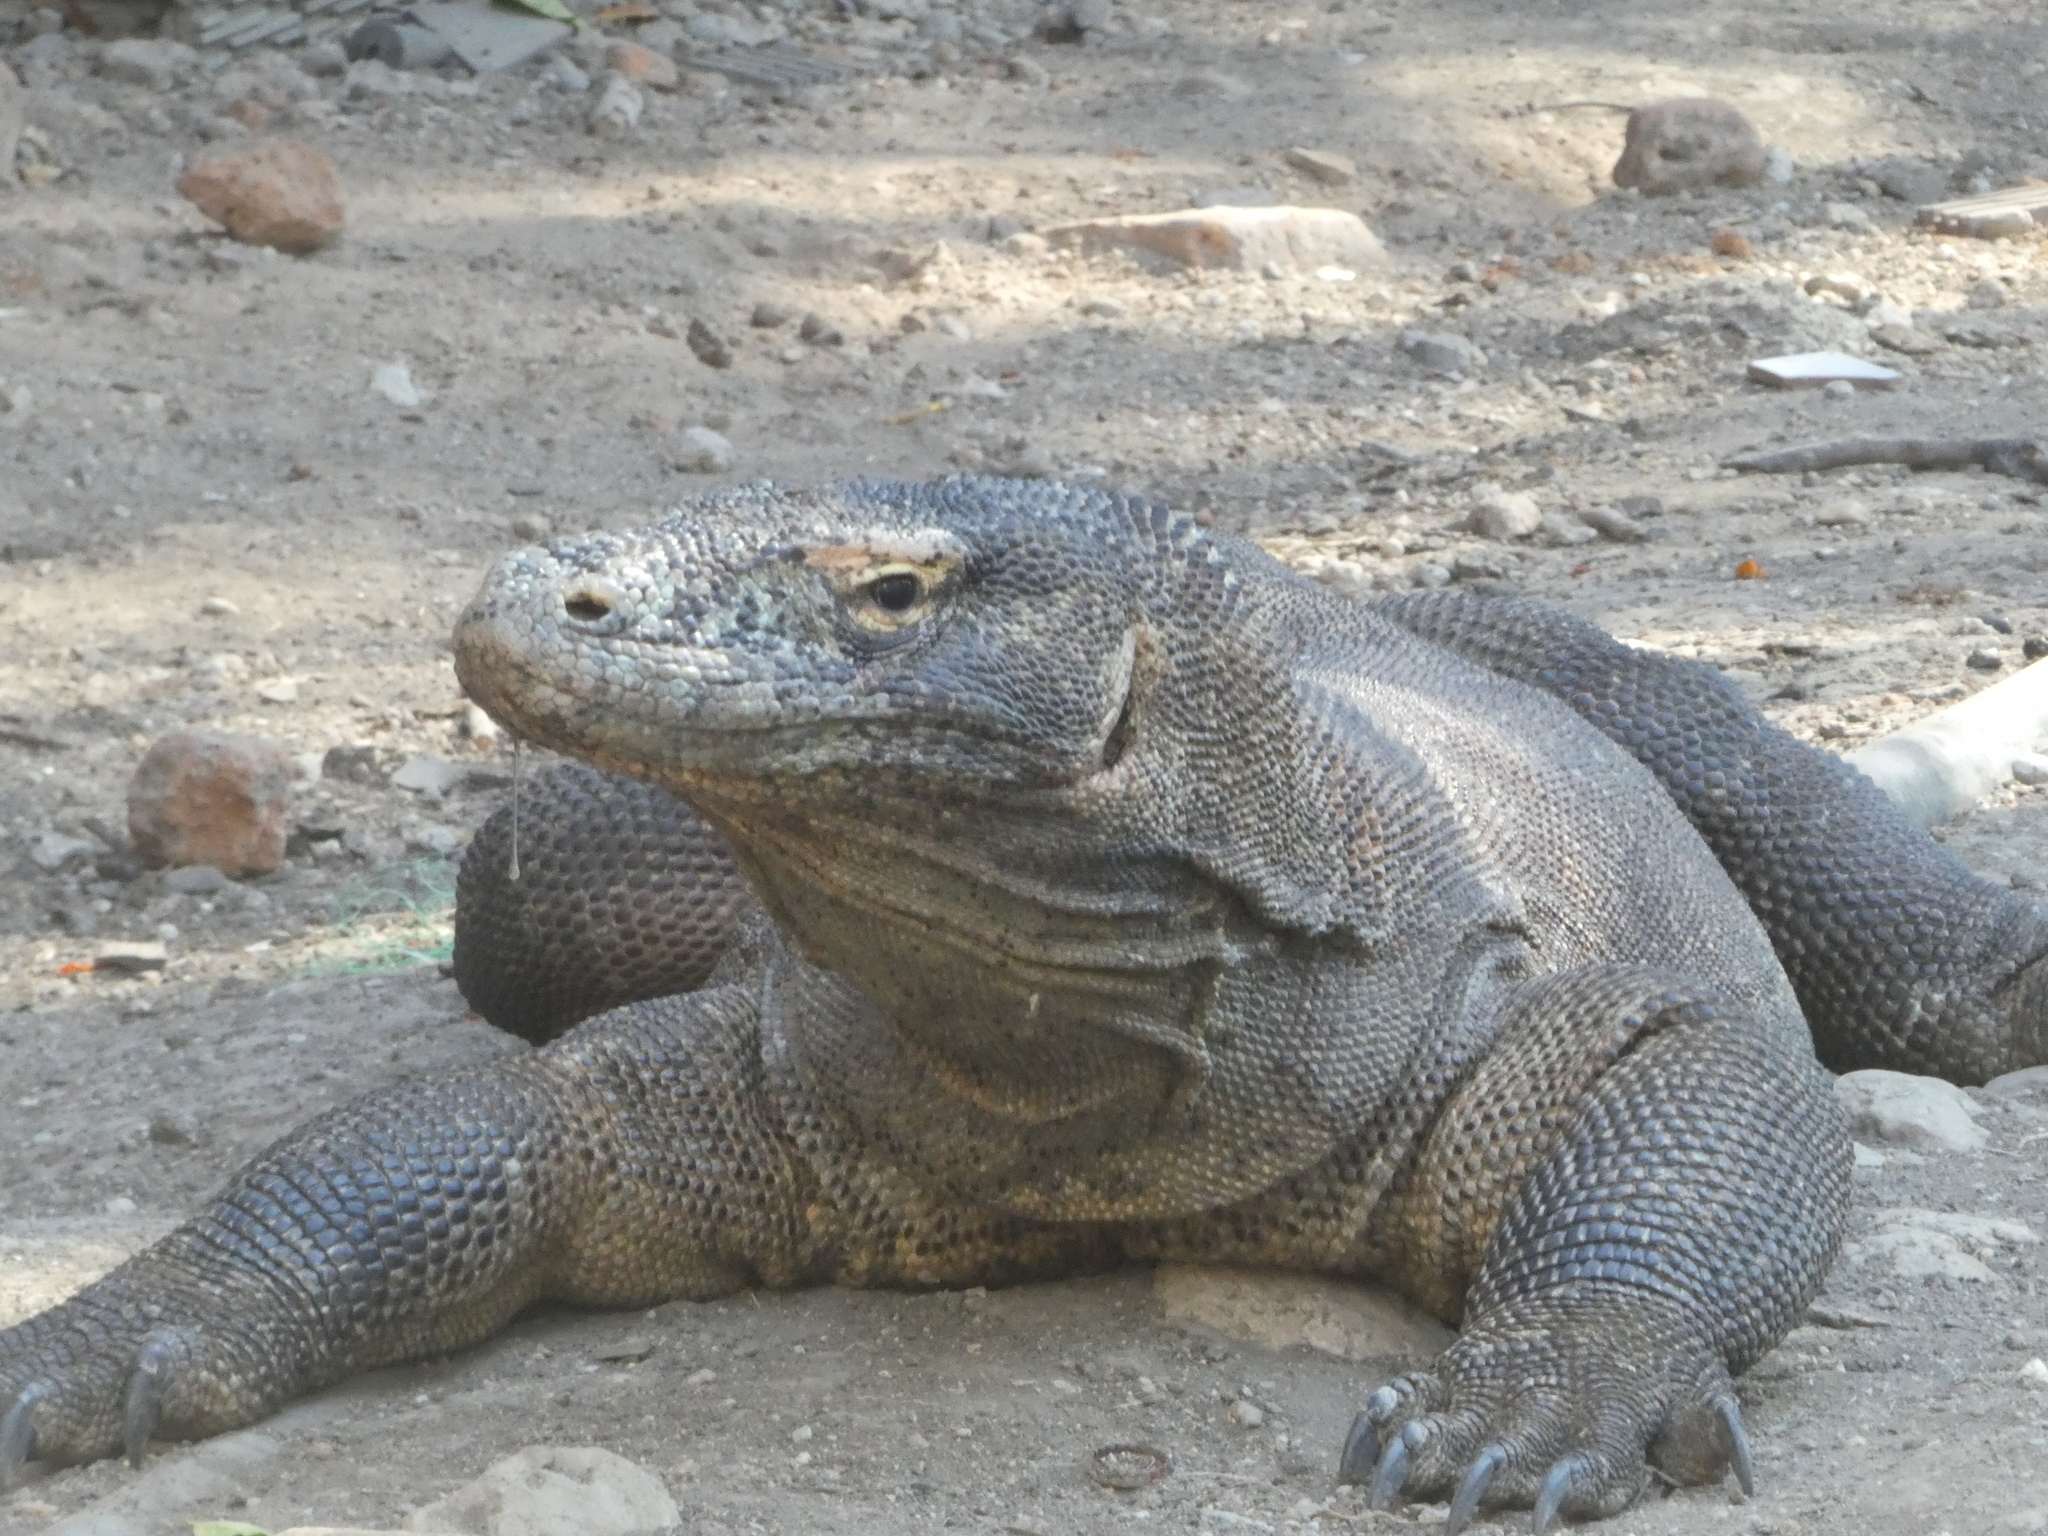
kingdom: Animalia
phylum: Chordata
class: Squamata
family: Varanidae
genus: Varanus
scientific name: Varanus komodoensis
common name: Komodo dragon
